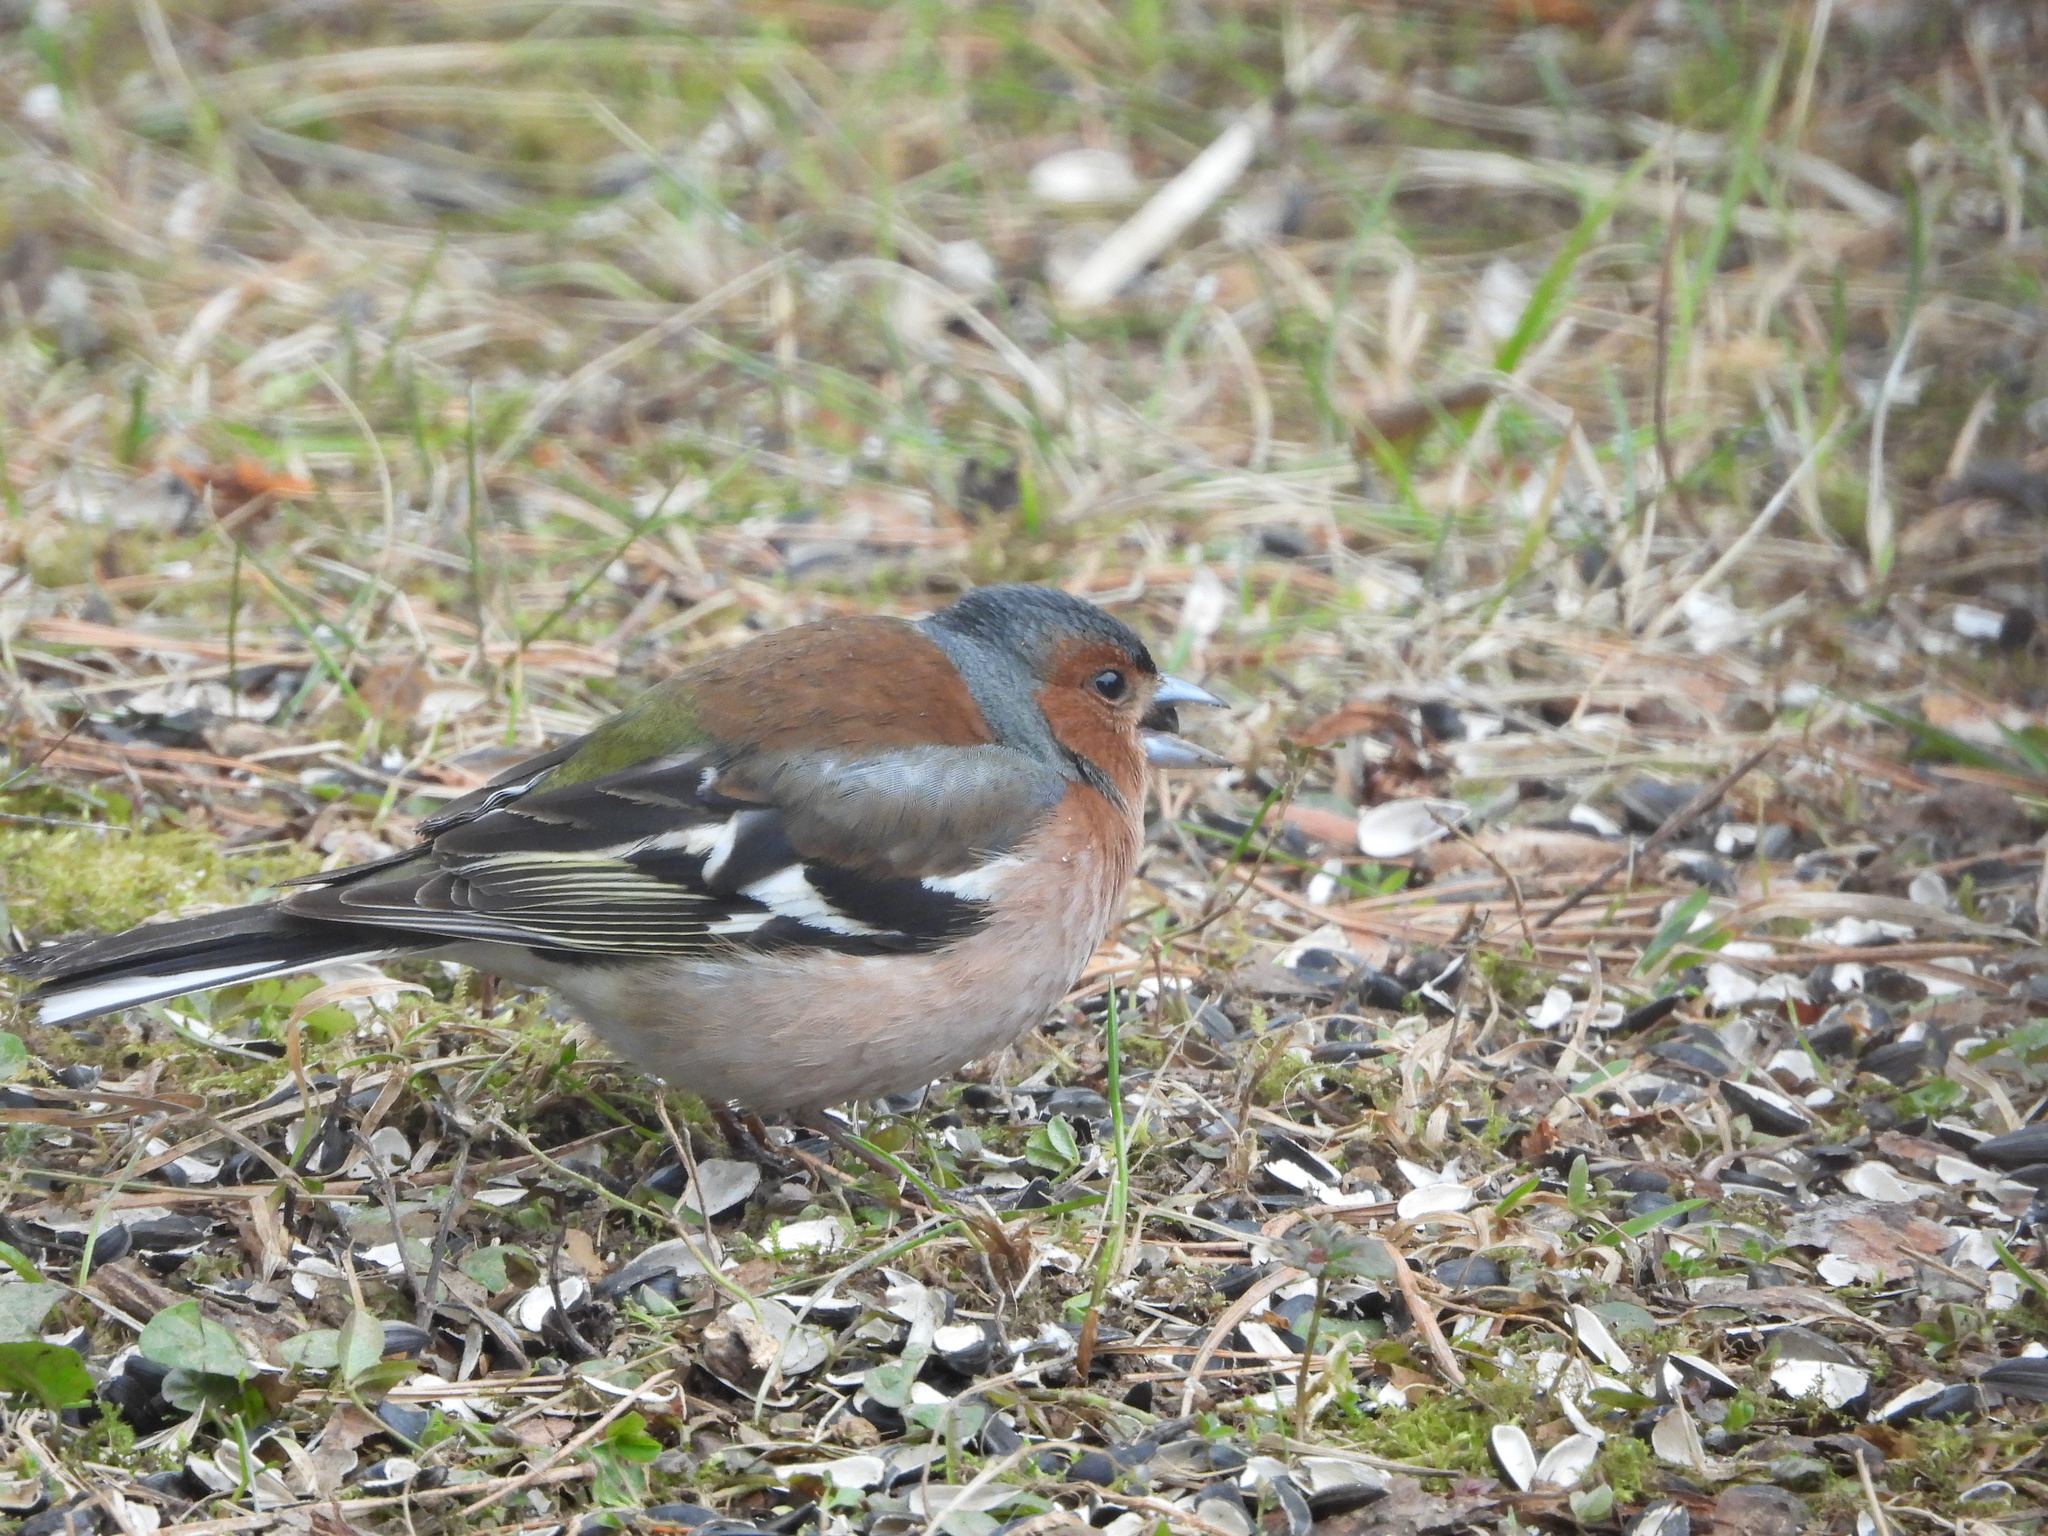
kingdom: Animalia
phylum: Chordata
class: Aves
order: Passeriformes
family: Fringillidae
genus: Fringilla
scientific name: Fringilla coelebs
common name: Common chaffinch
